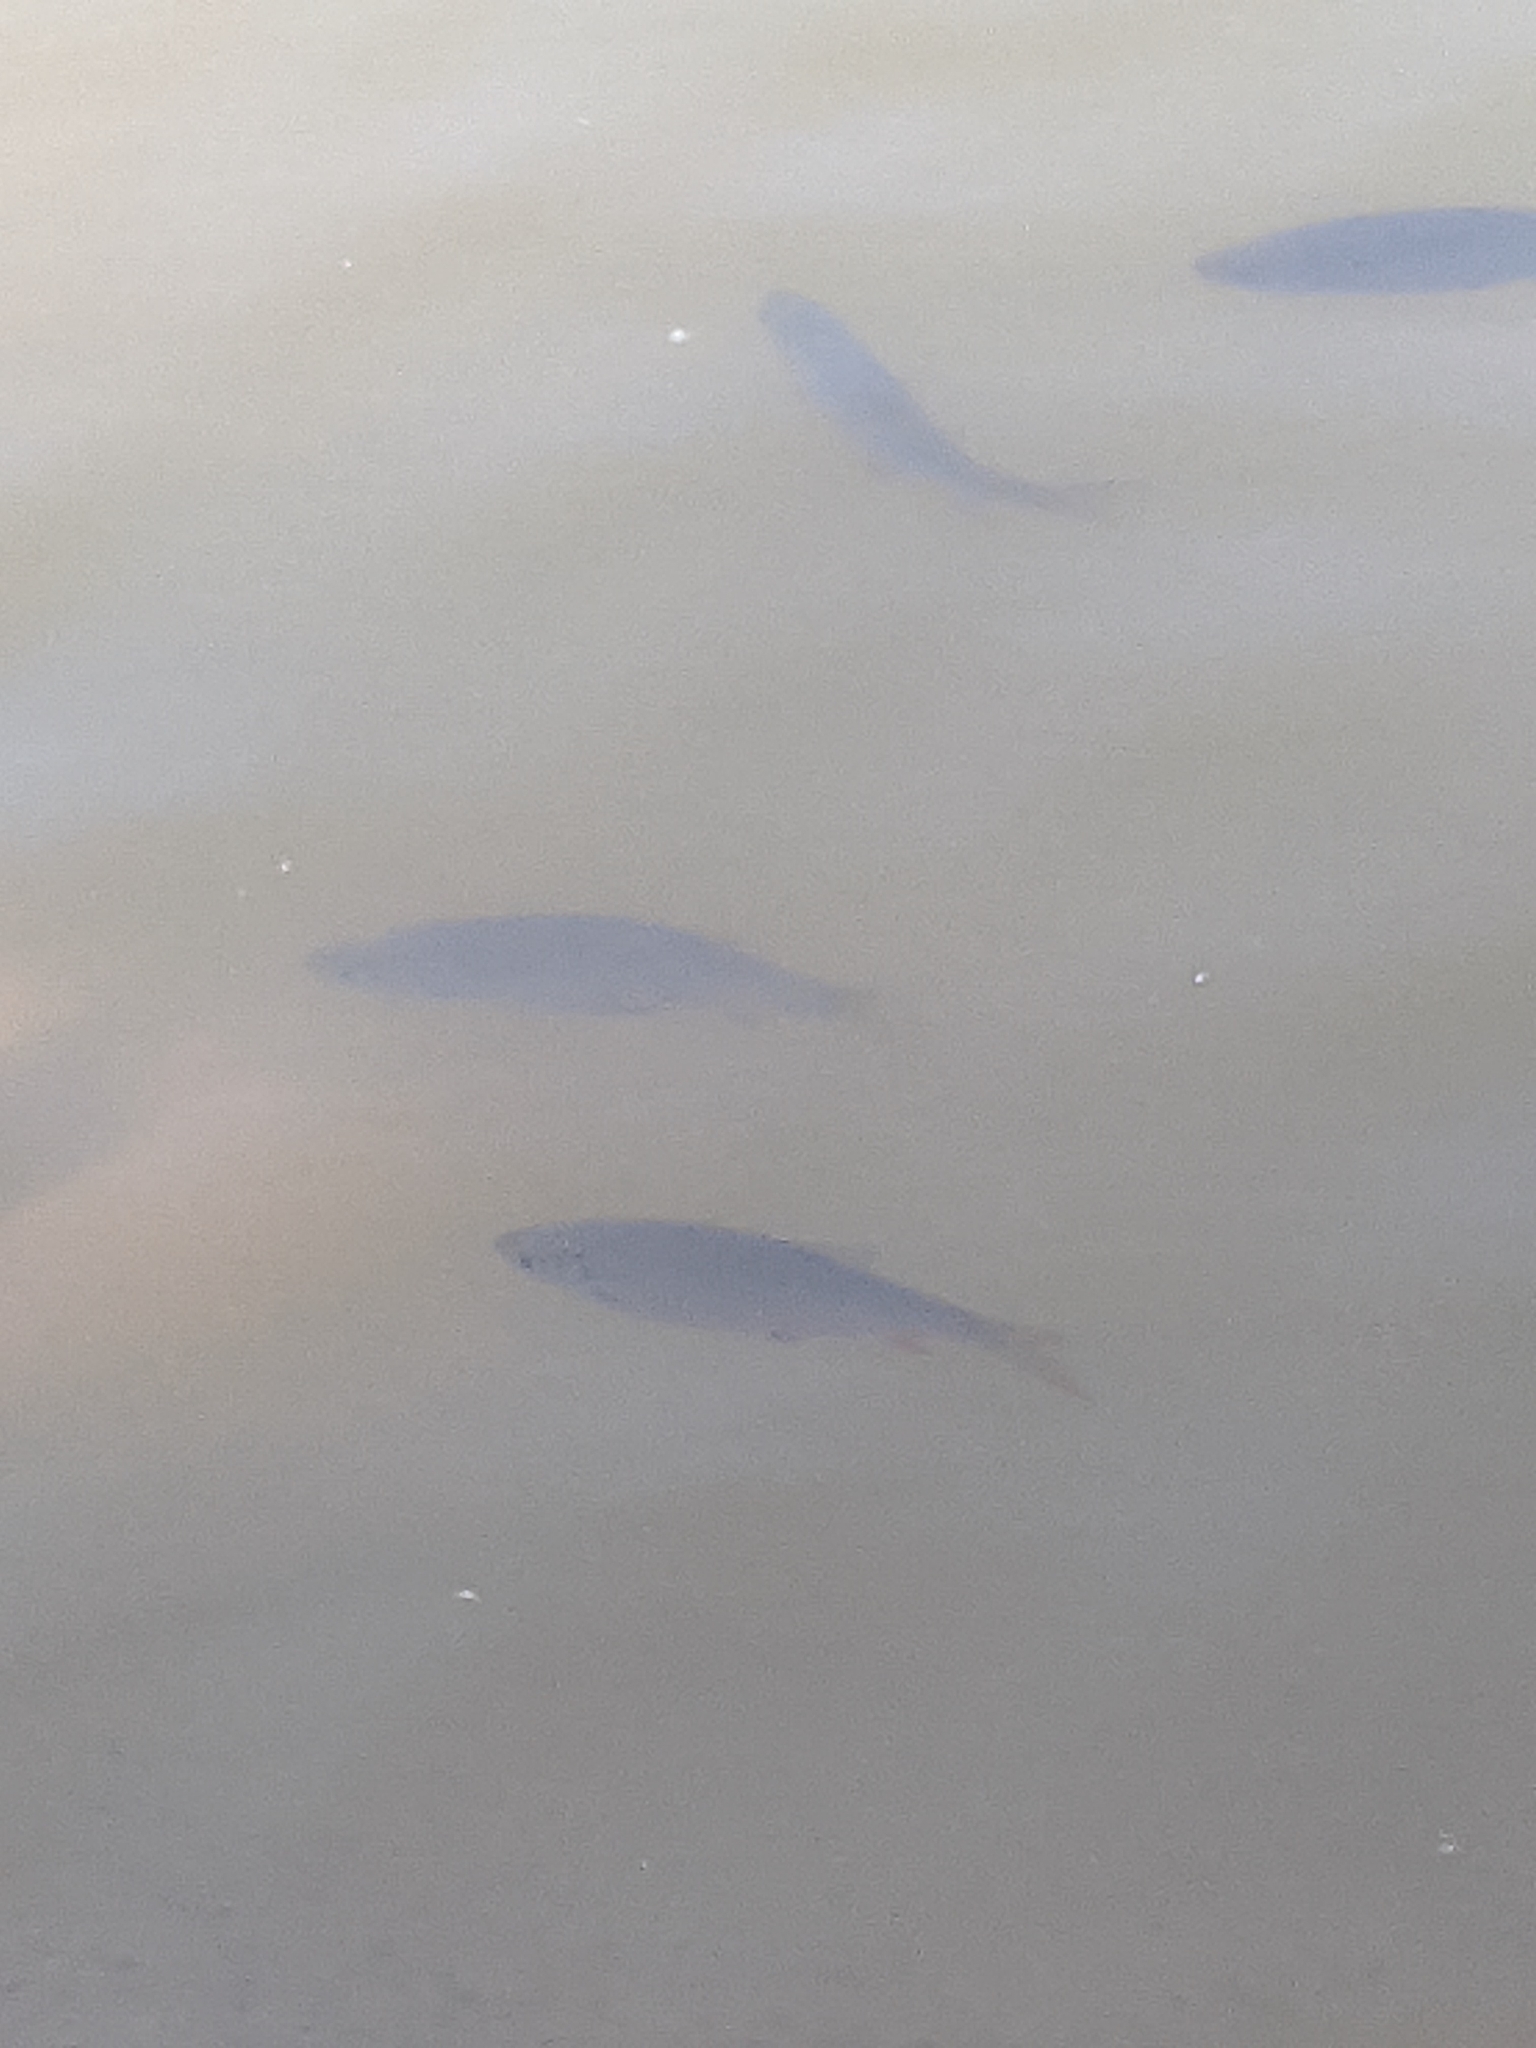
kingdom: Animalia
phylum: Chordata
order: Cypriniformes
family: Cyprinidae
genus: Scardinius
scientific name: Scardinius erythrophthalmus
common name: Rudd
